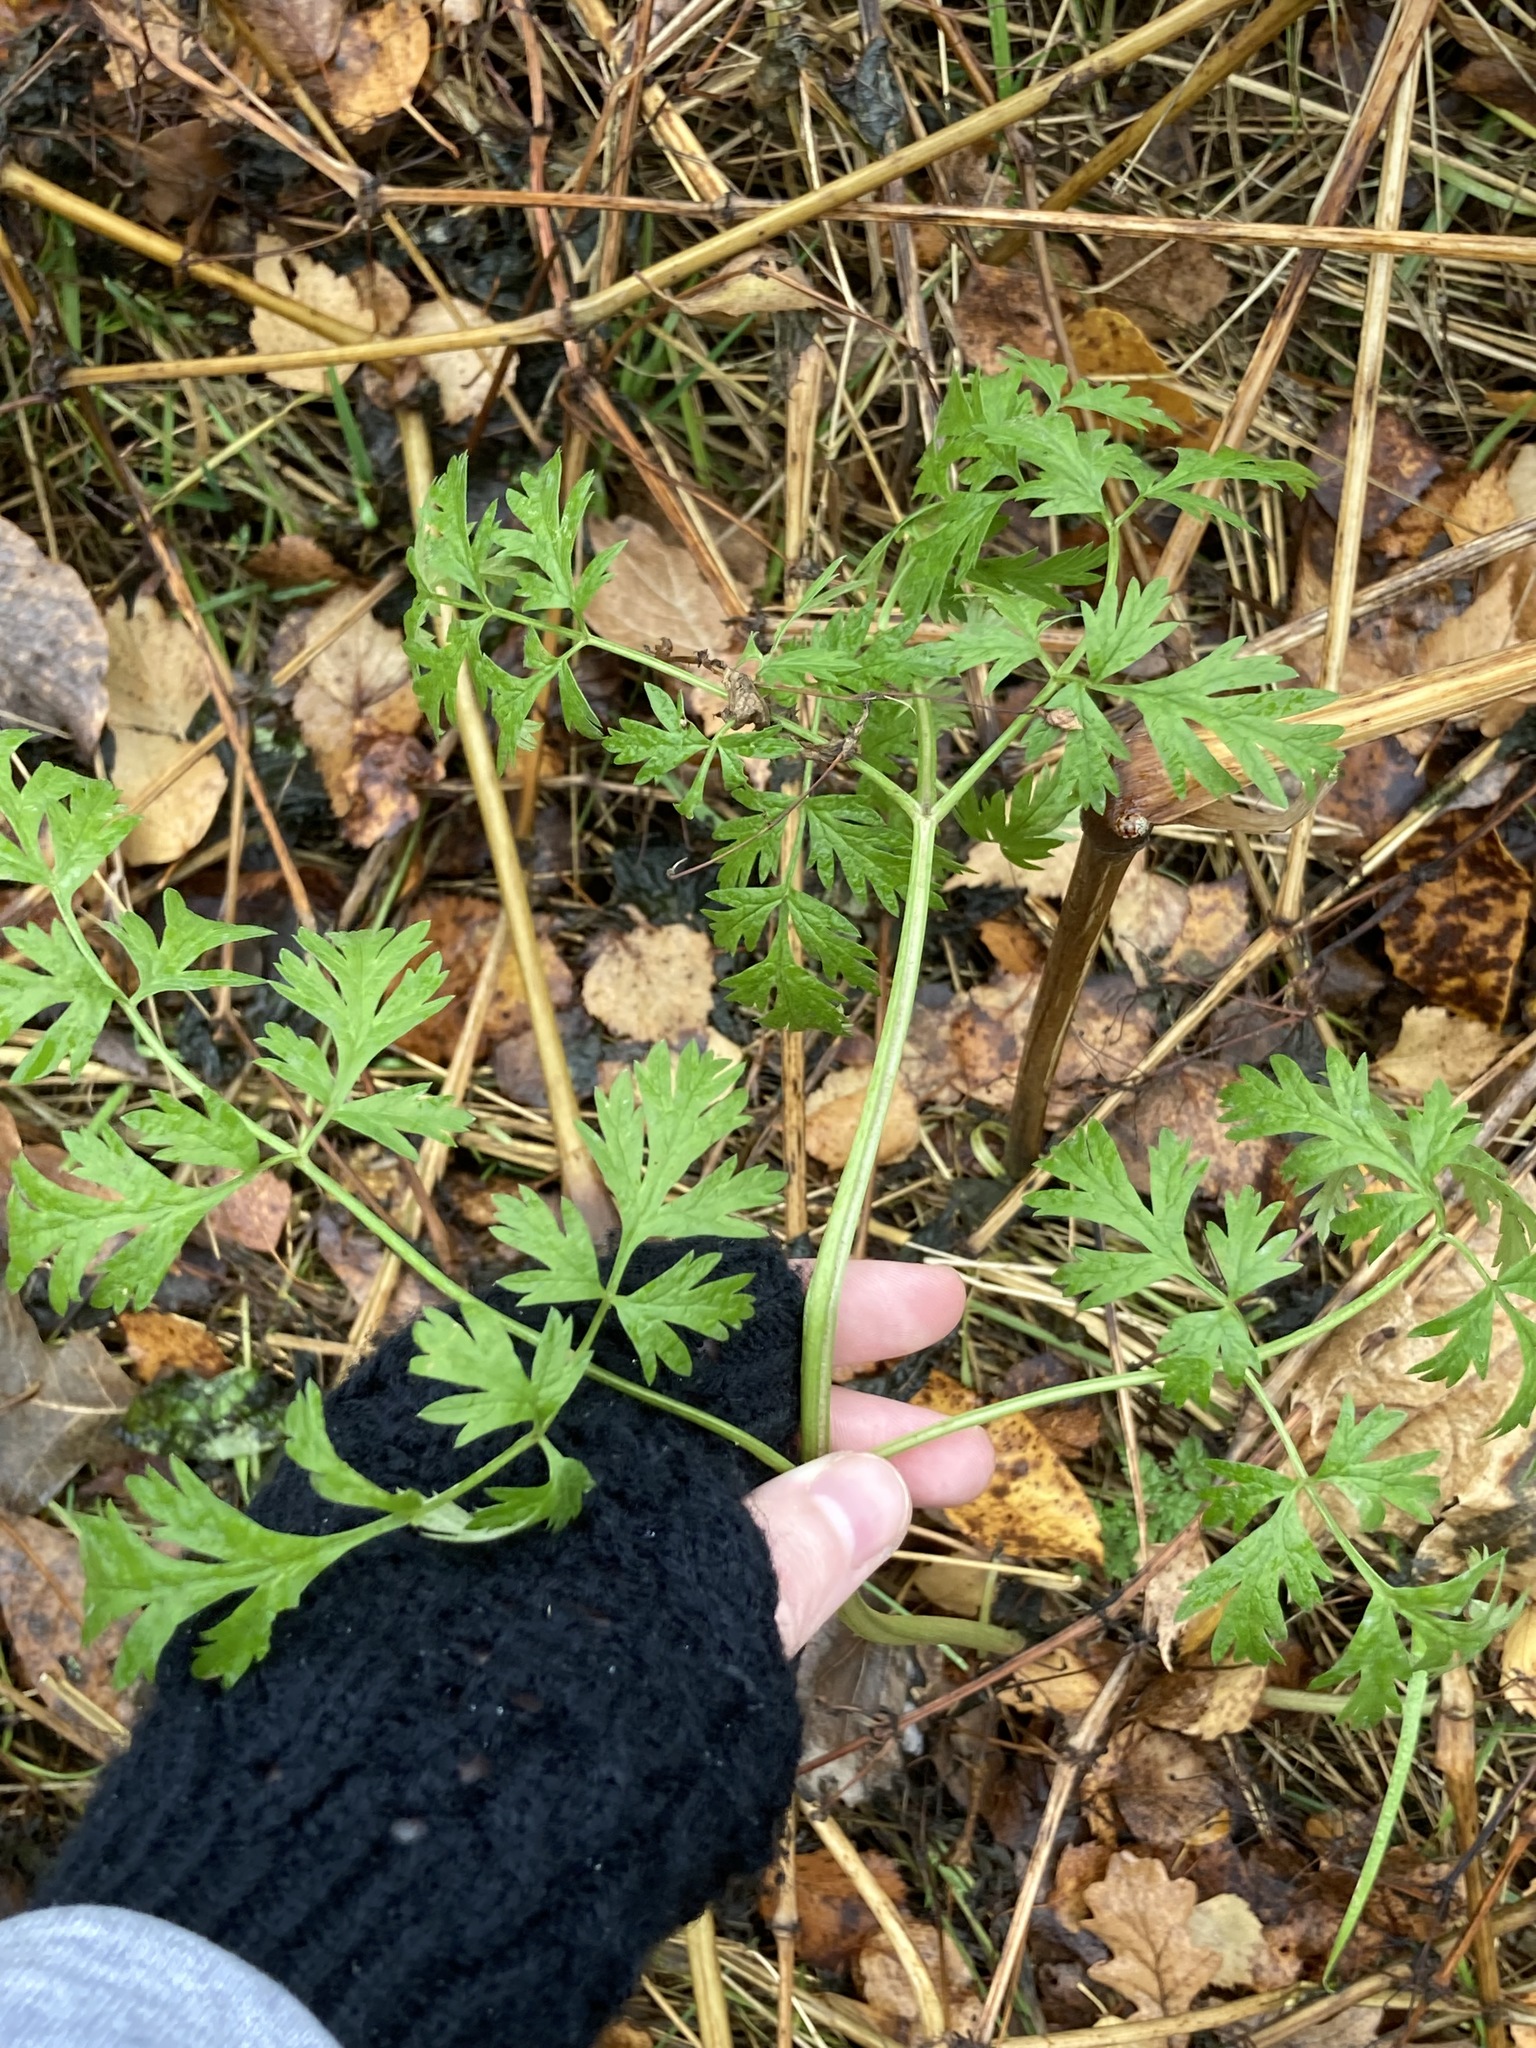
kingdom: Plantae
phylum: Tracheophyta
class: Magnoliopsida
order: Apiales
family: Apiaceae
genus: Anthriscus
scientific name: Anthriscus sylvestris
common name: Cow parsley
